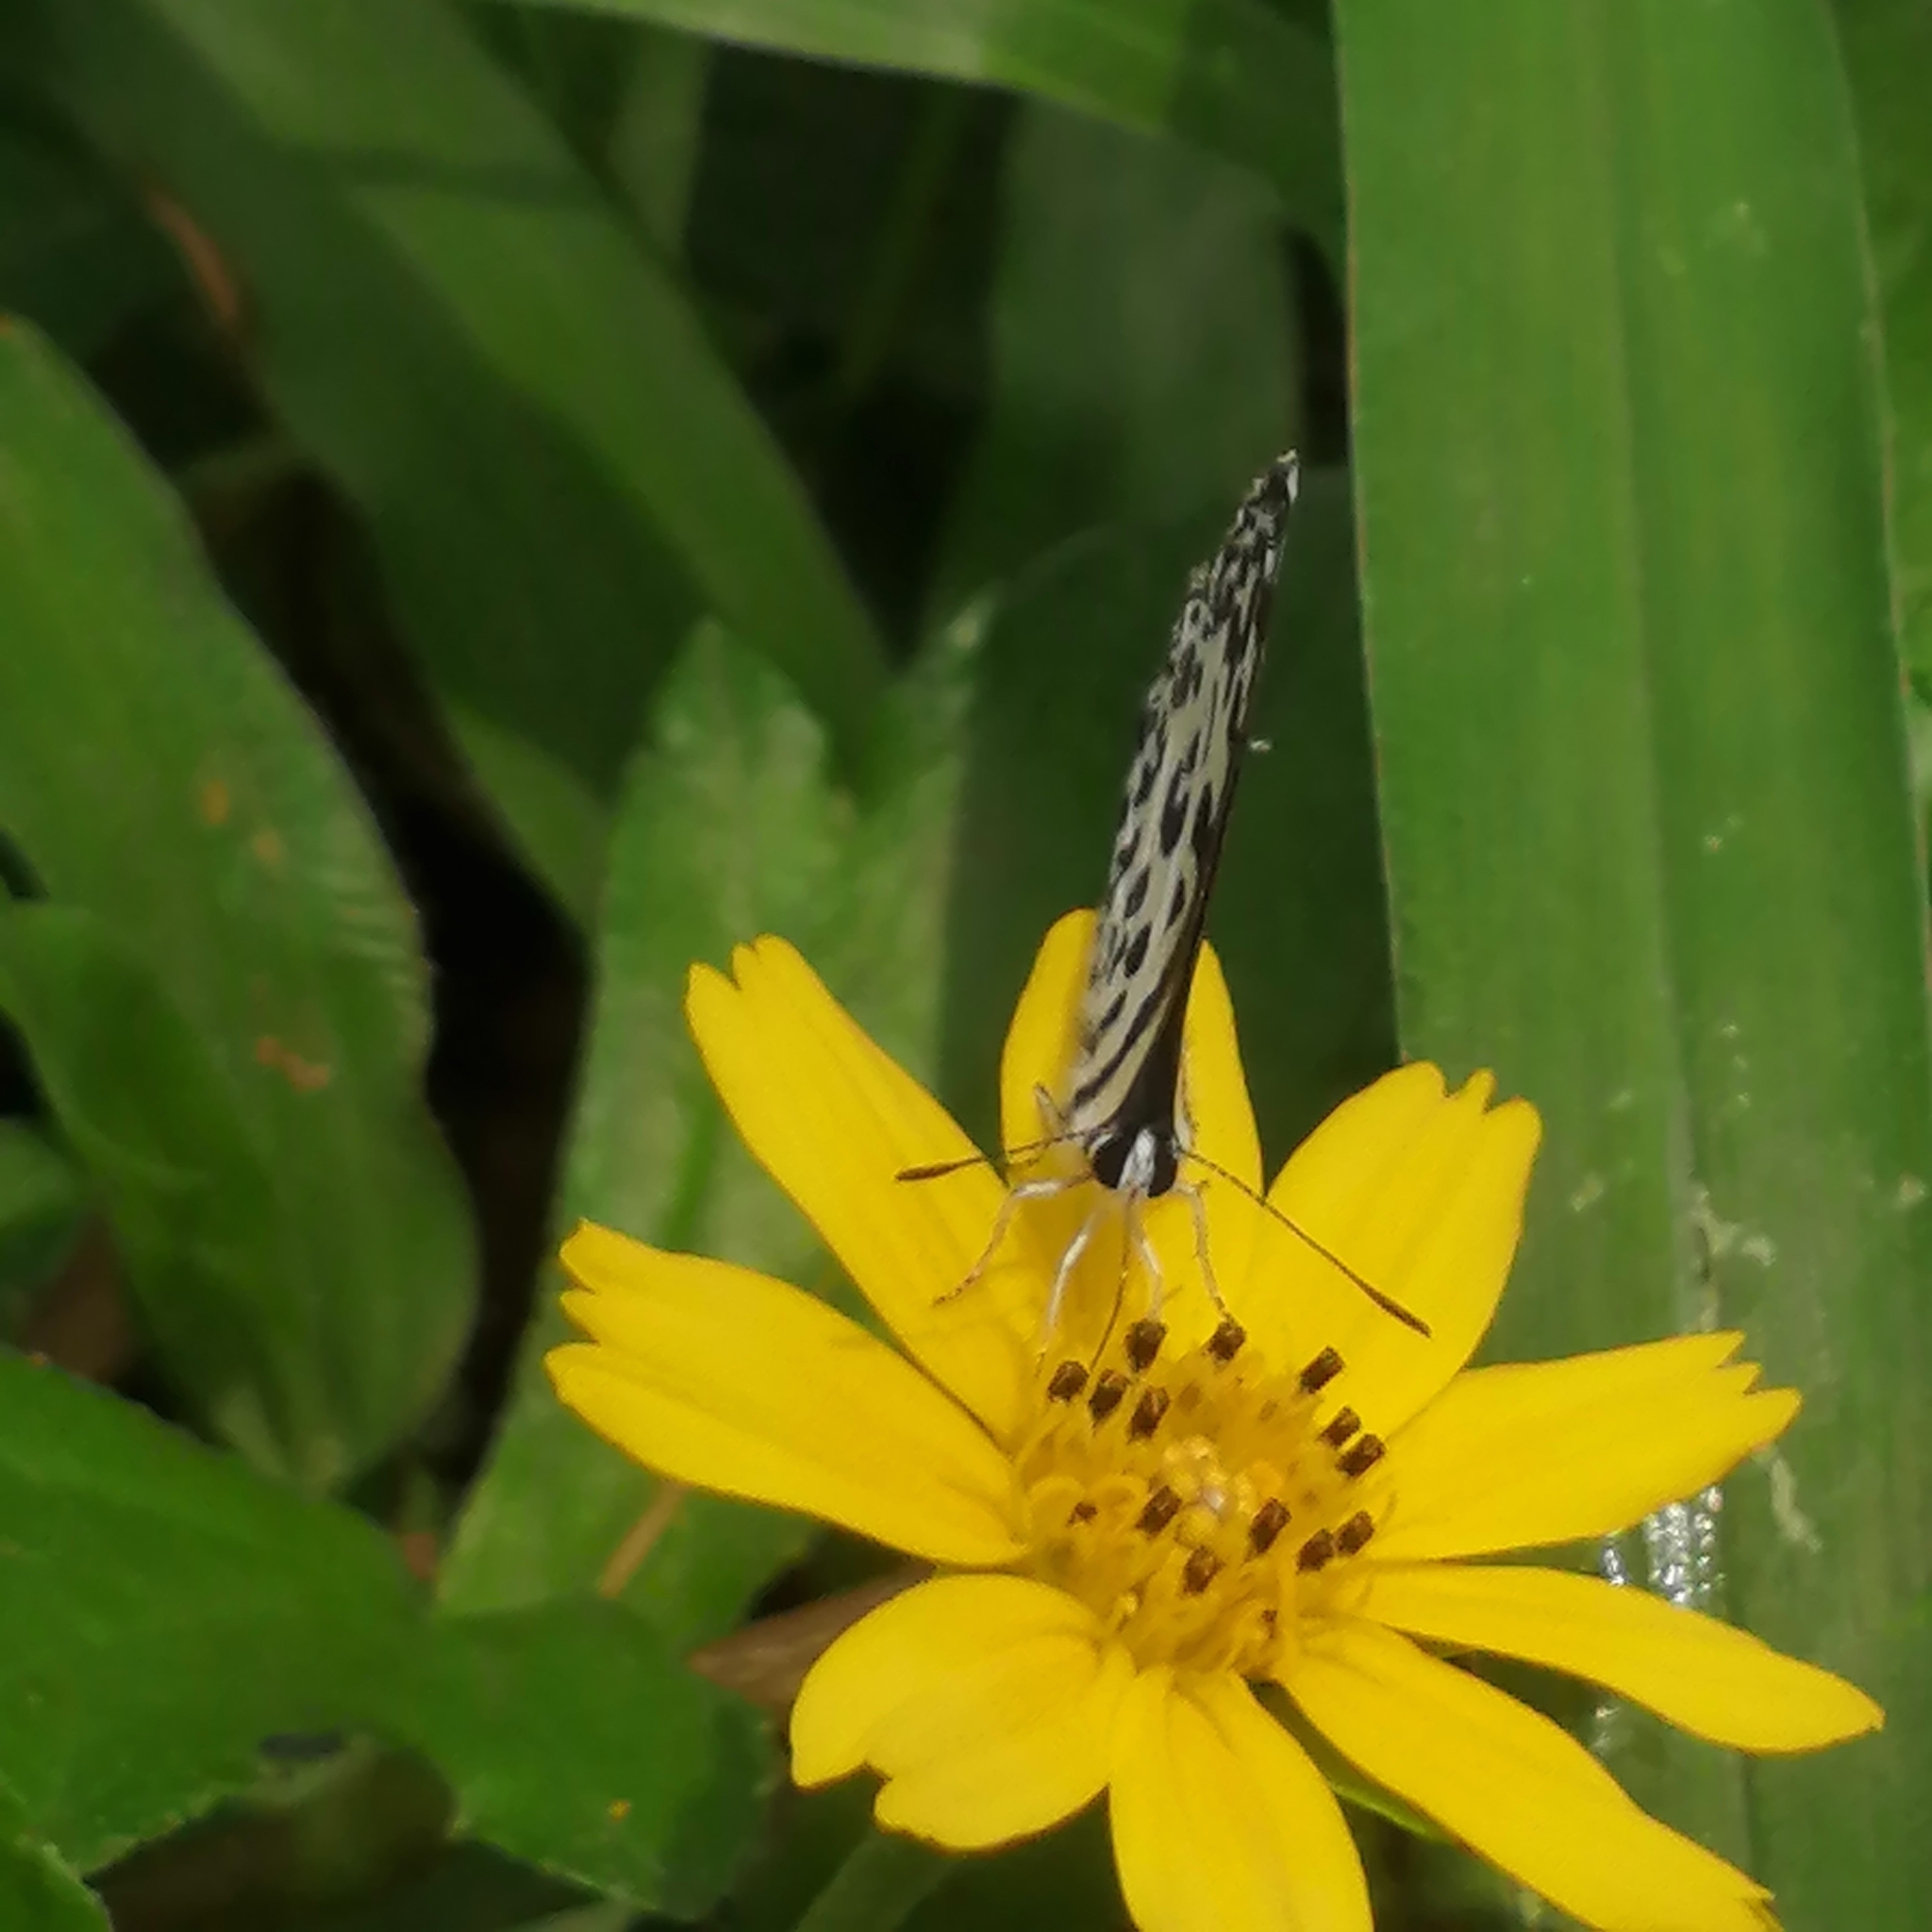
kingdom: Animalia
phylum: Arthropoda
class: Insecta
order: Lepidoptera
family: Lycaenidae
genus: Castalius
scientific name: Castalius rosimon
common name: Common pierrot
